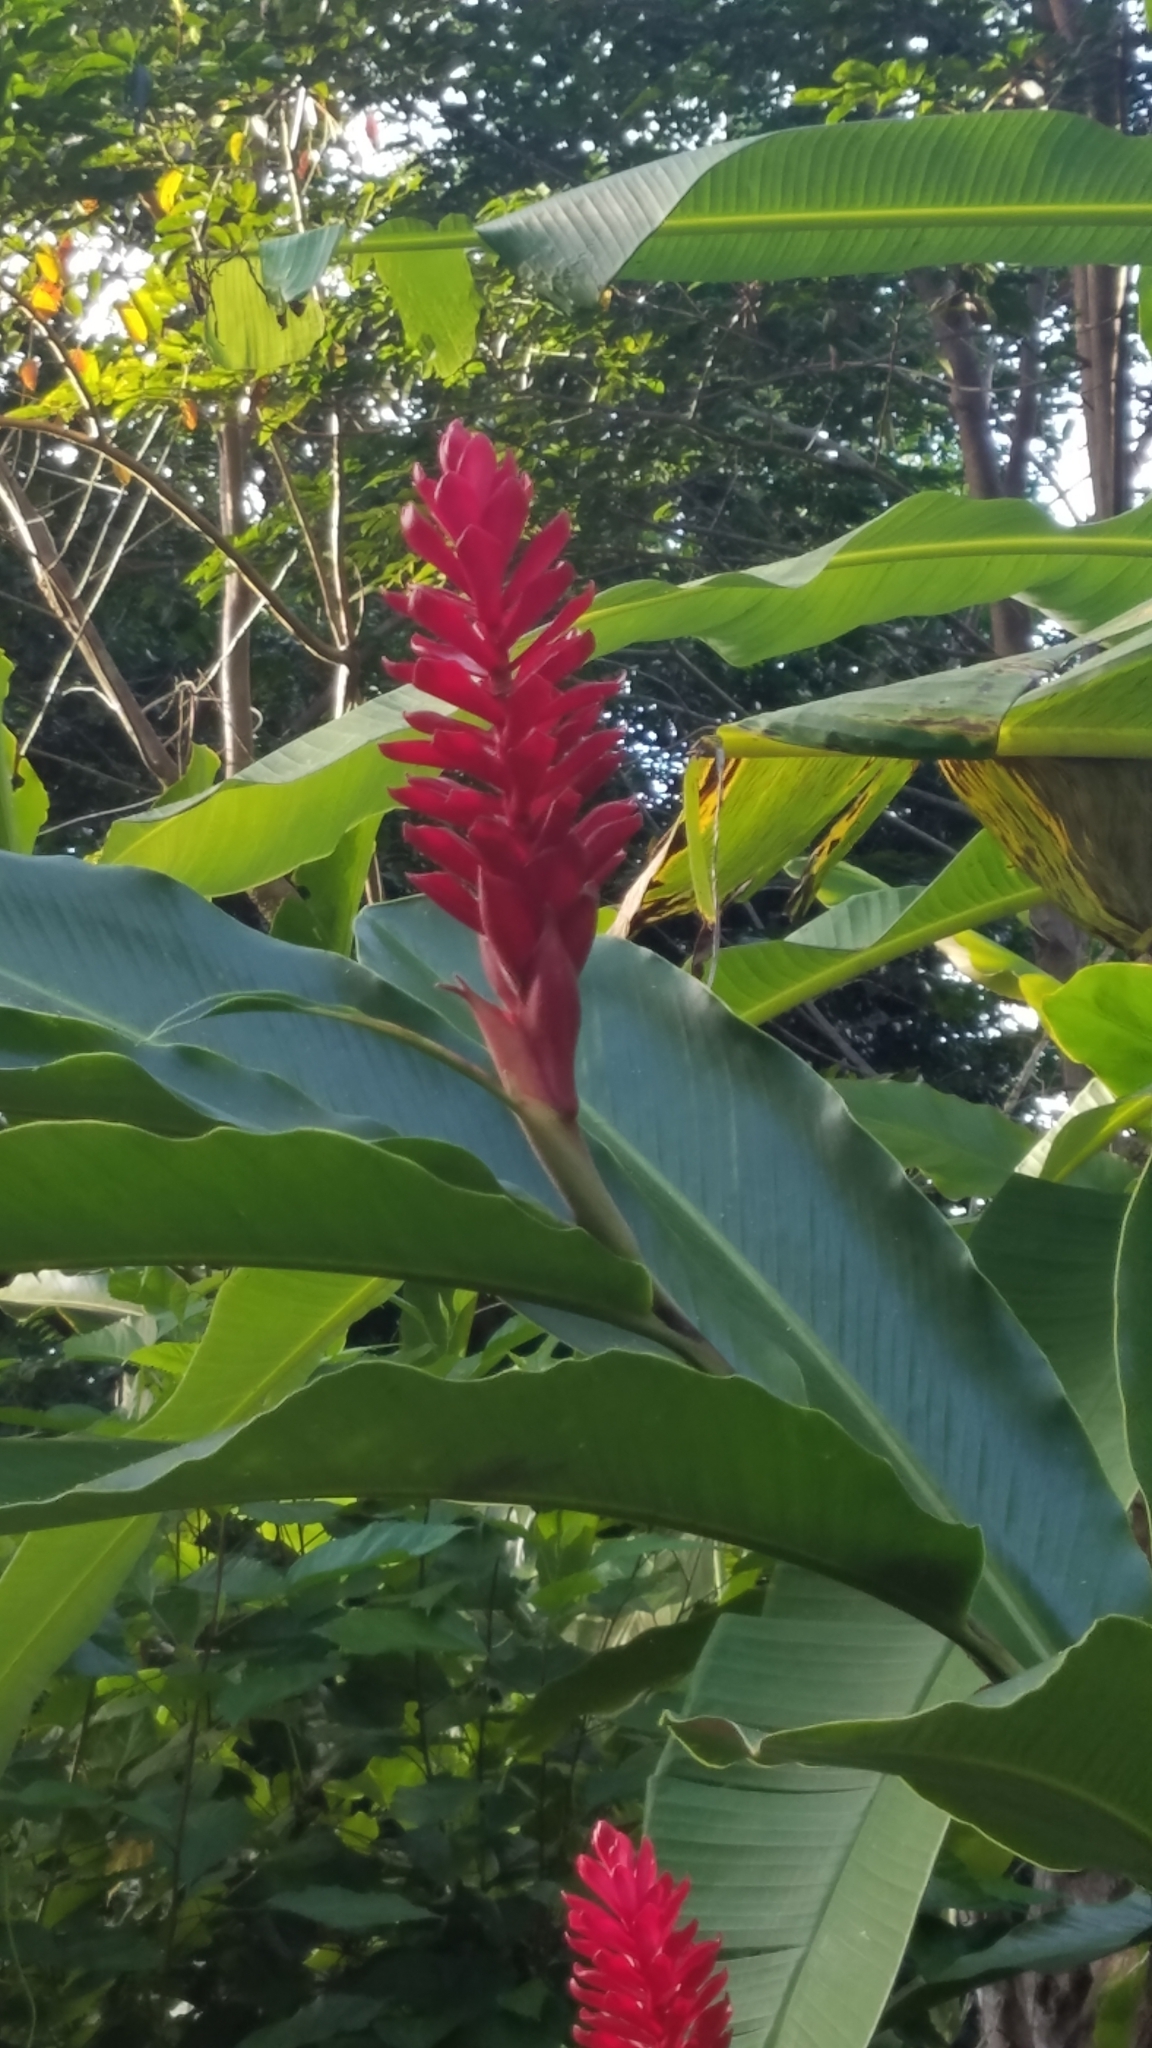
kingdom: Plantae
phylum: Tracheophyta
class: Liliopsida
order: Zingiberales
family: Zingiberaceae
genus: Alpinia
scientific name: Alpinia purpurata
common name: Red ginger
